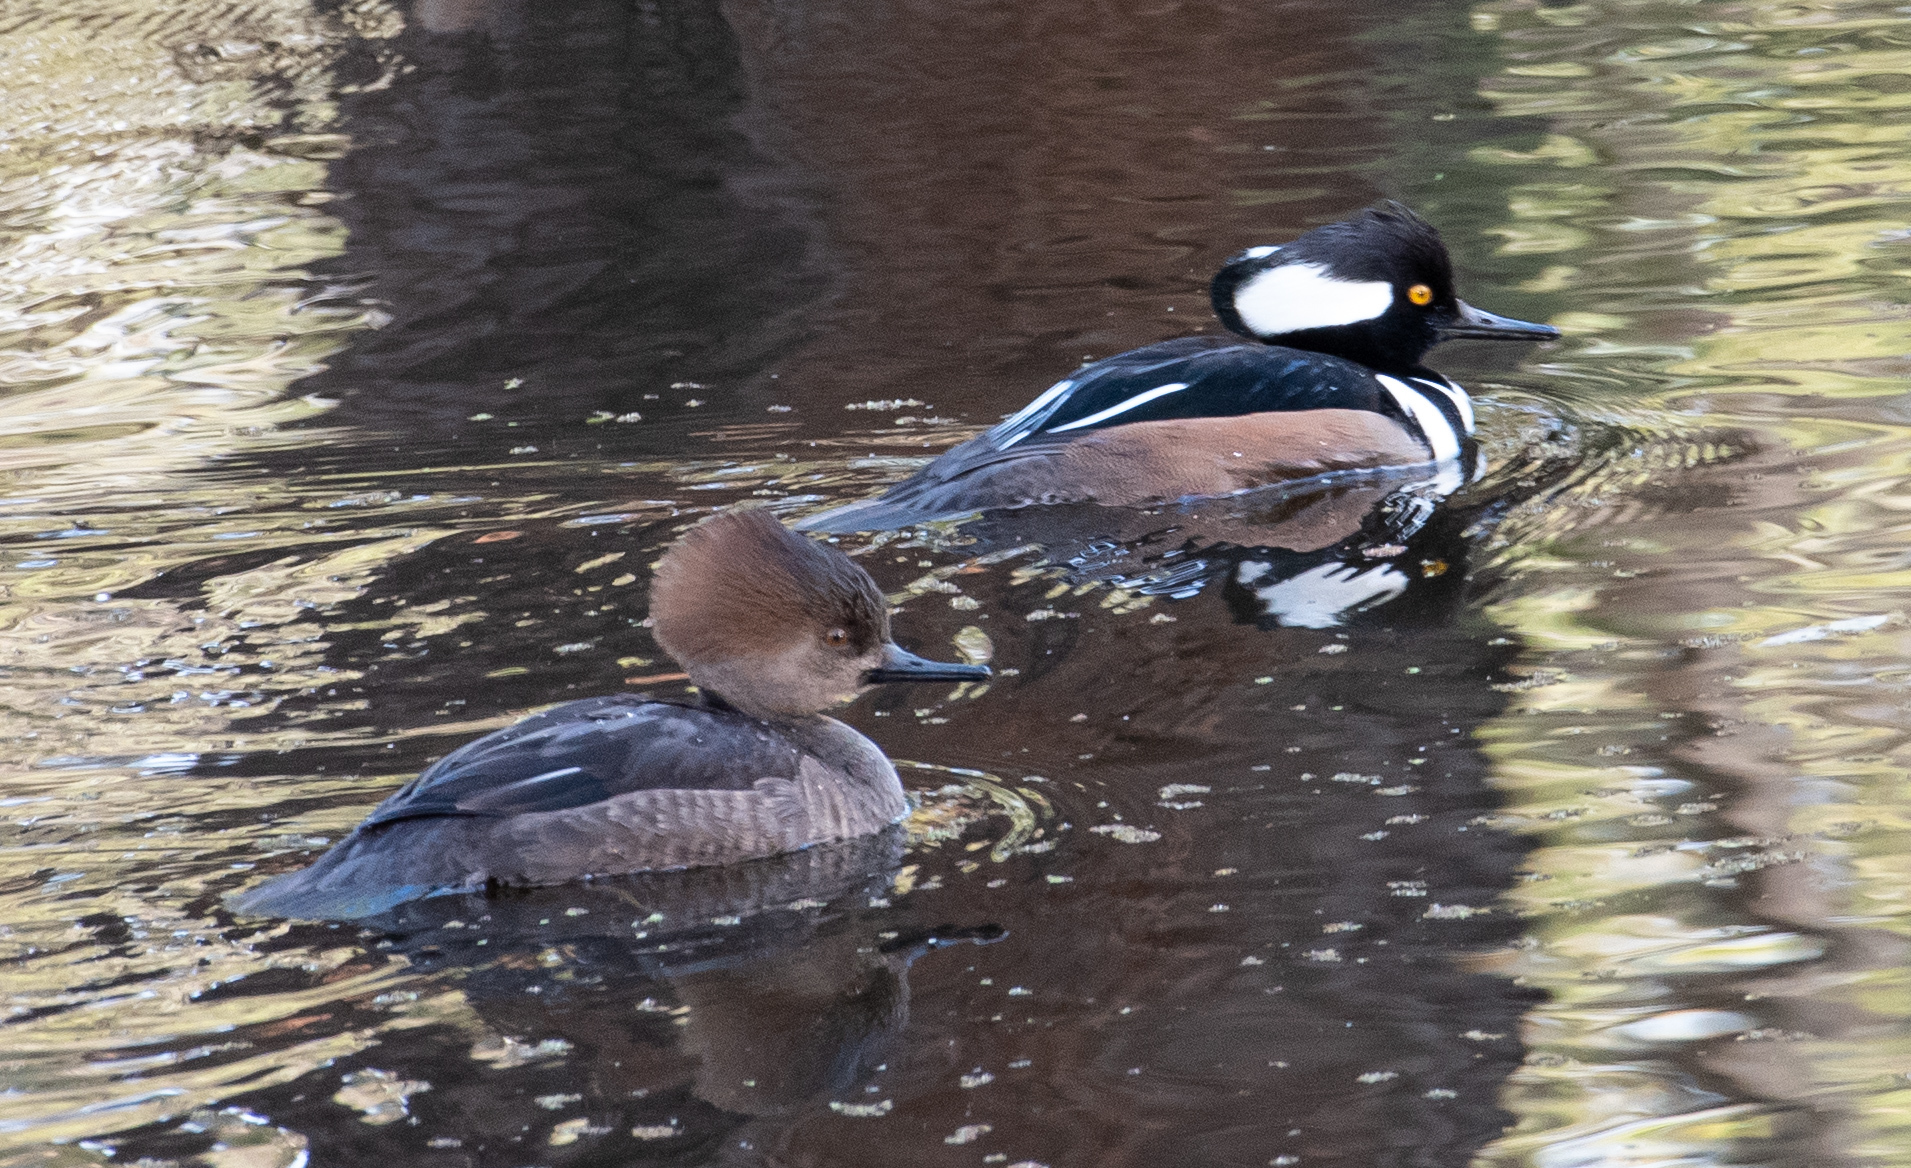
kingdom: Animalia
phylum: Chordata
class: Aves
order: Anseriformes
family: Anatidae
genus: Lophodytes
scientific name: Lophodytes cucullatus
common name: Hooded merganser
